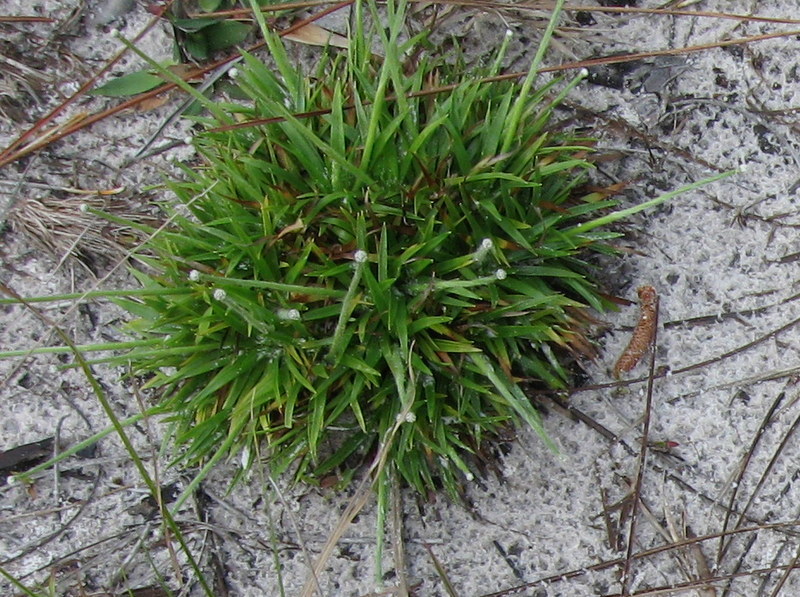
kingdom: Plantae
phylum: Tracheophyta
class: Liliopsida
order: Poales
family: Eriocaulaceae
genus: Paepalanthus
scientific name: Paepalanthus beyrichianus
